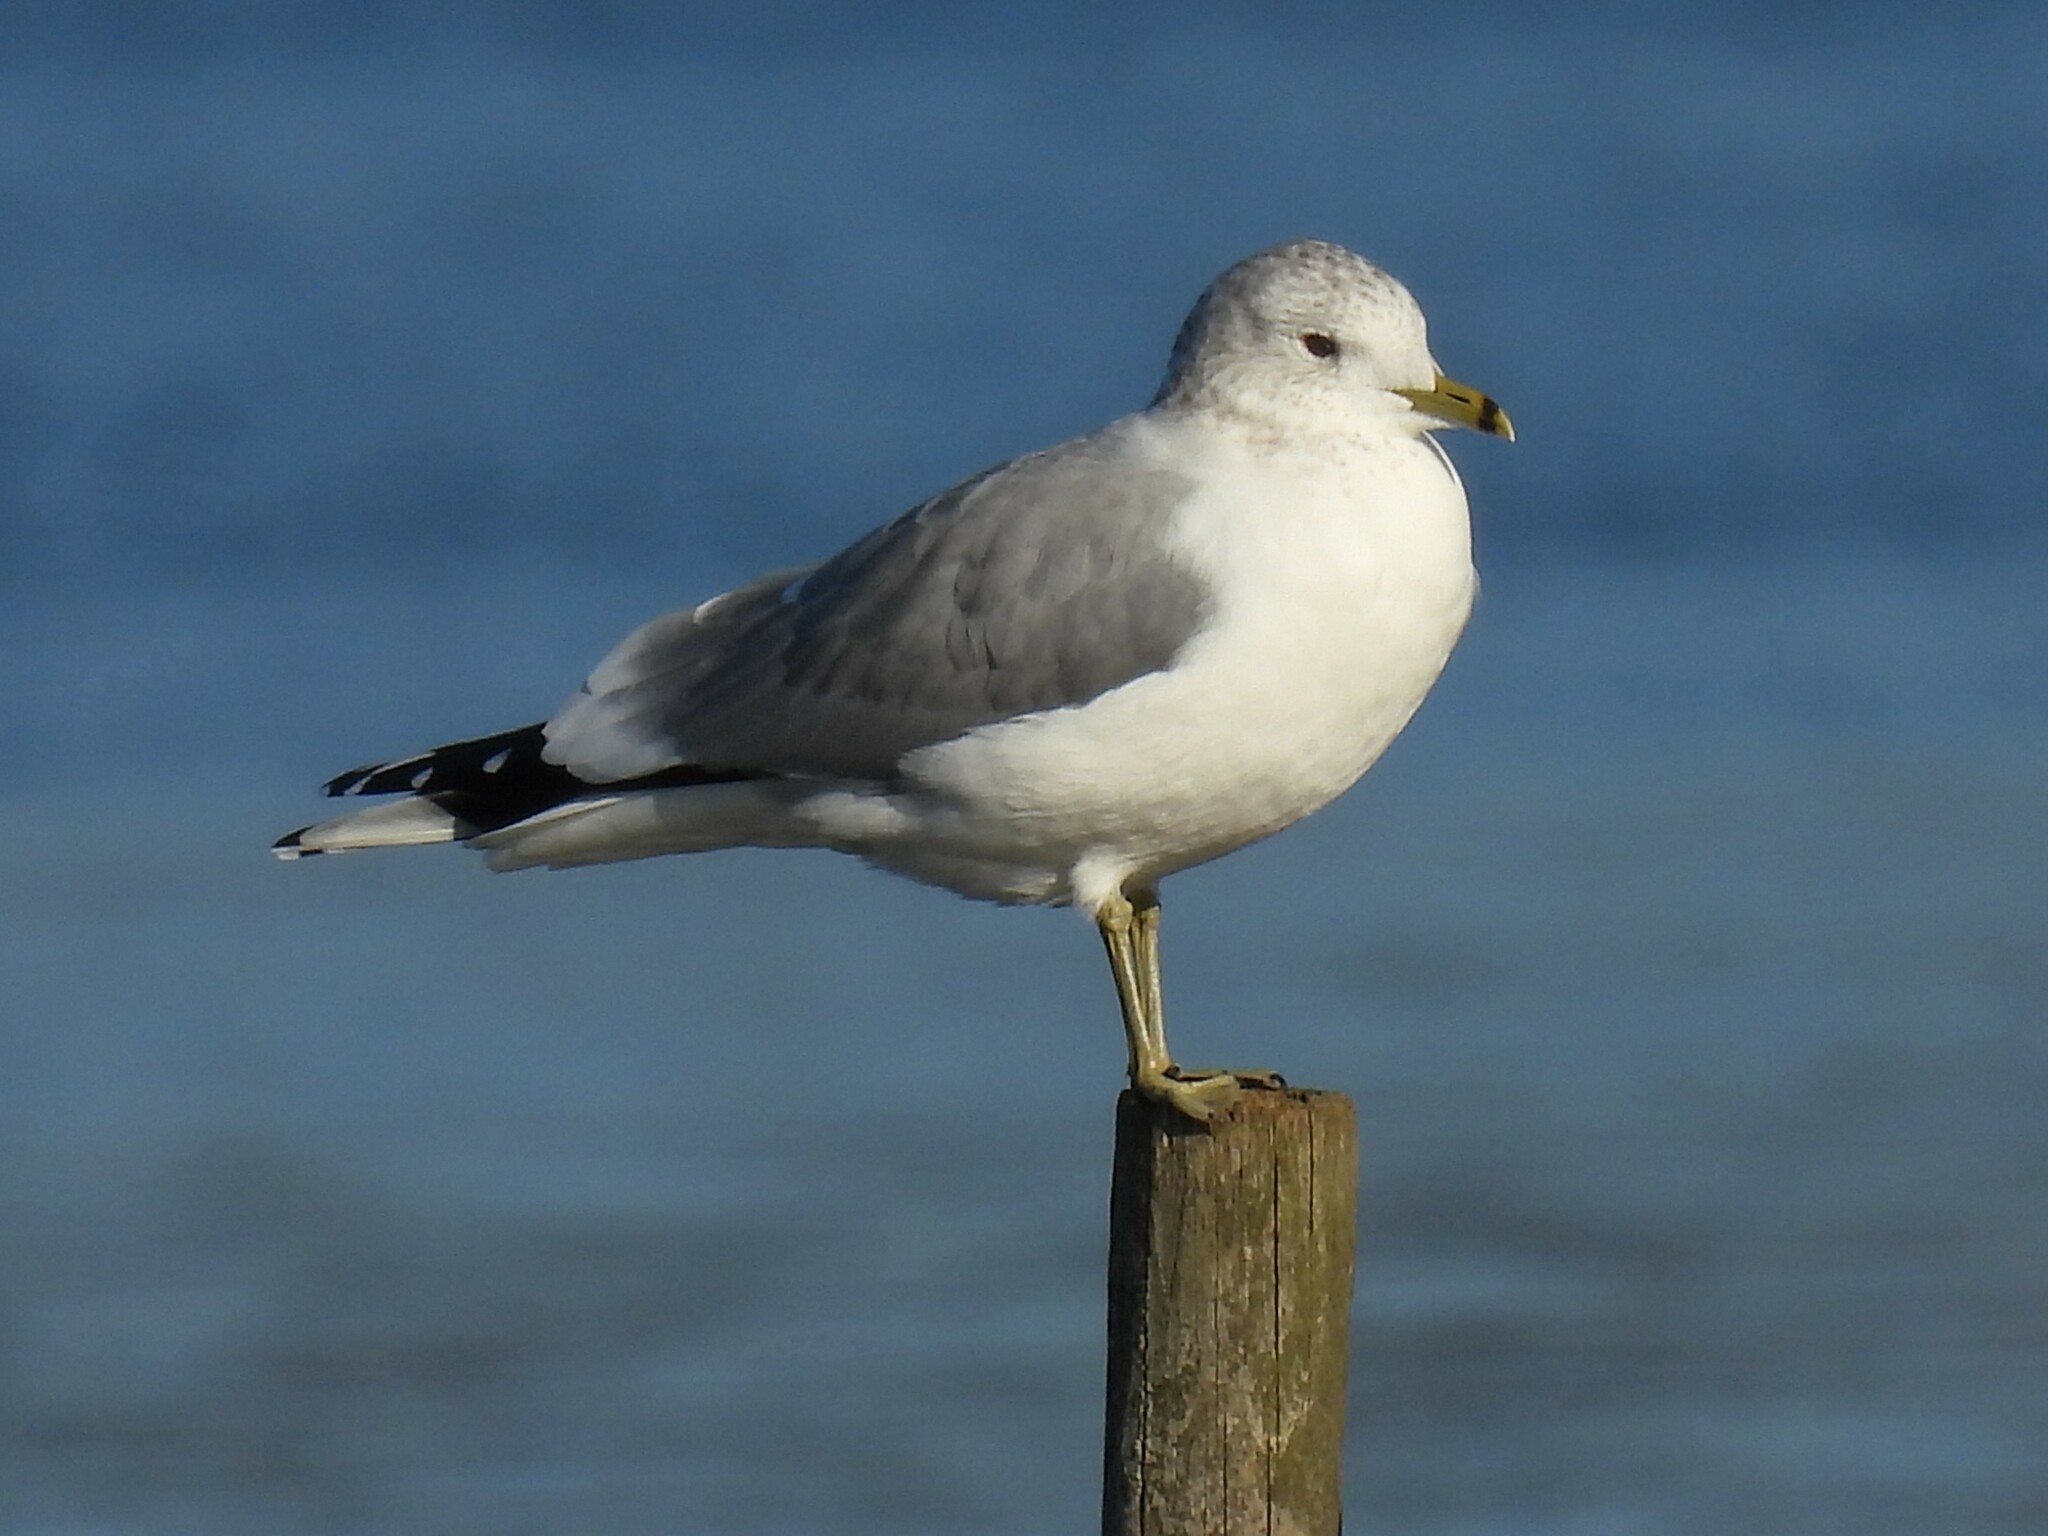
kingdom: Animalia
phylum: Chordata
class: Aves
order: Charadriiformes
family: Laridae
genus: Larus
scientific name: Larus canus
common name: Mew gull
